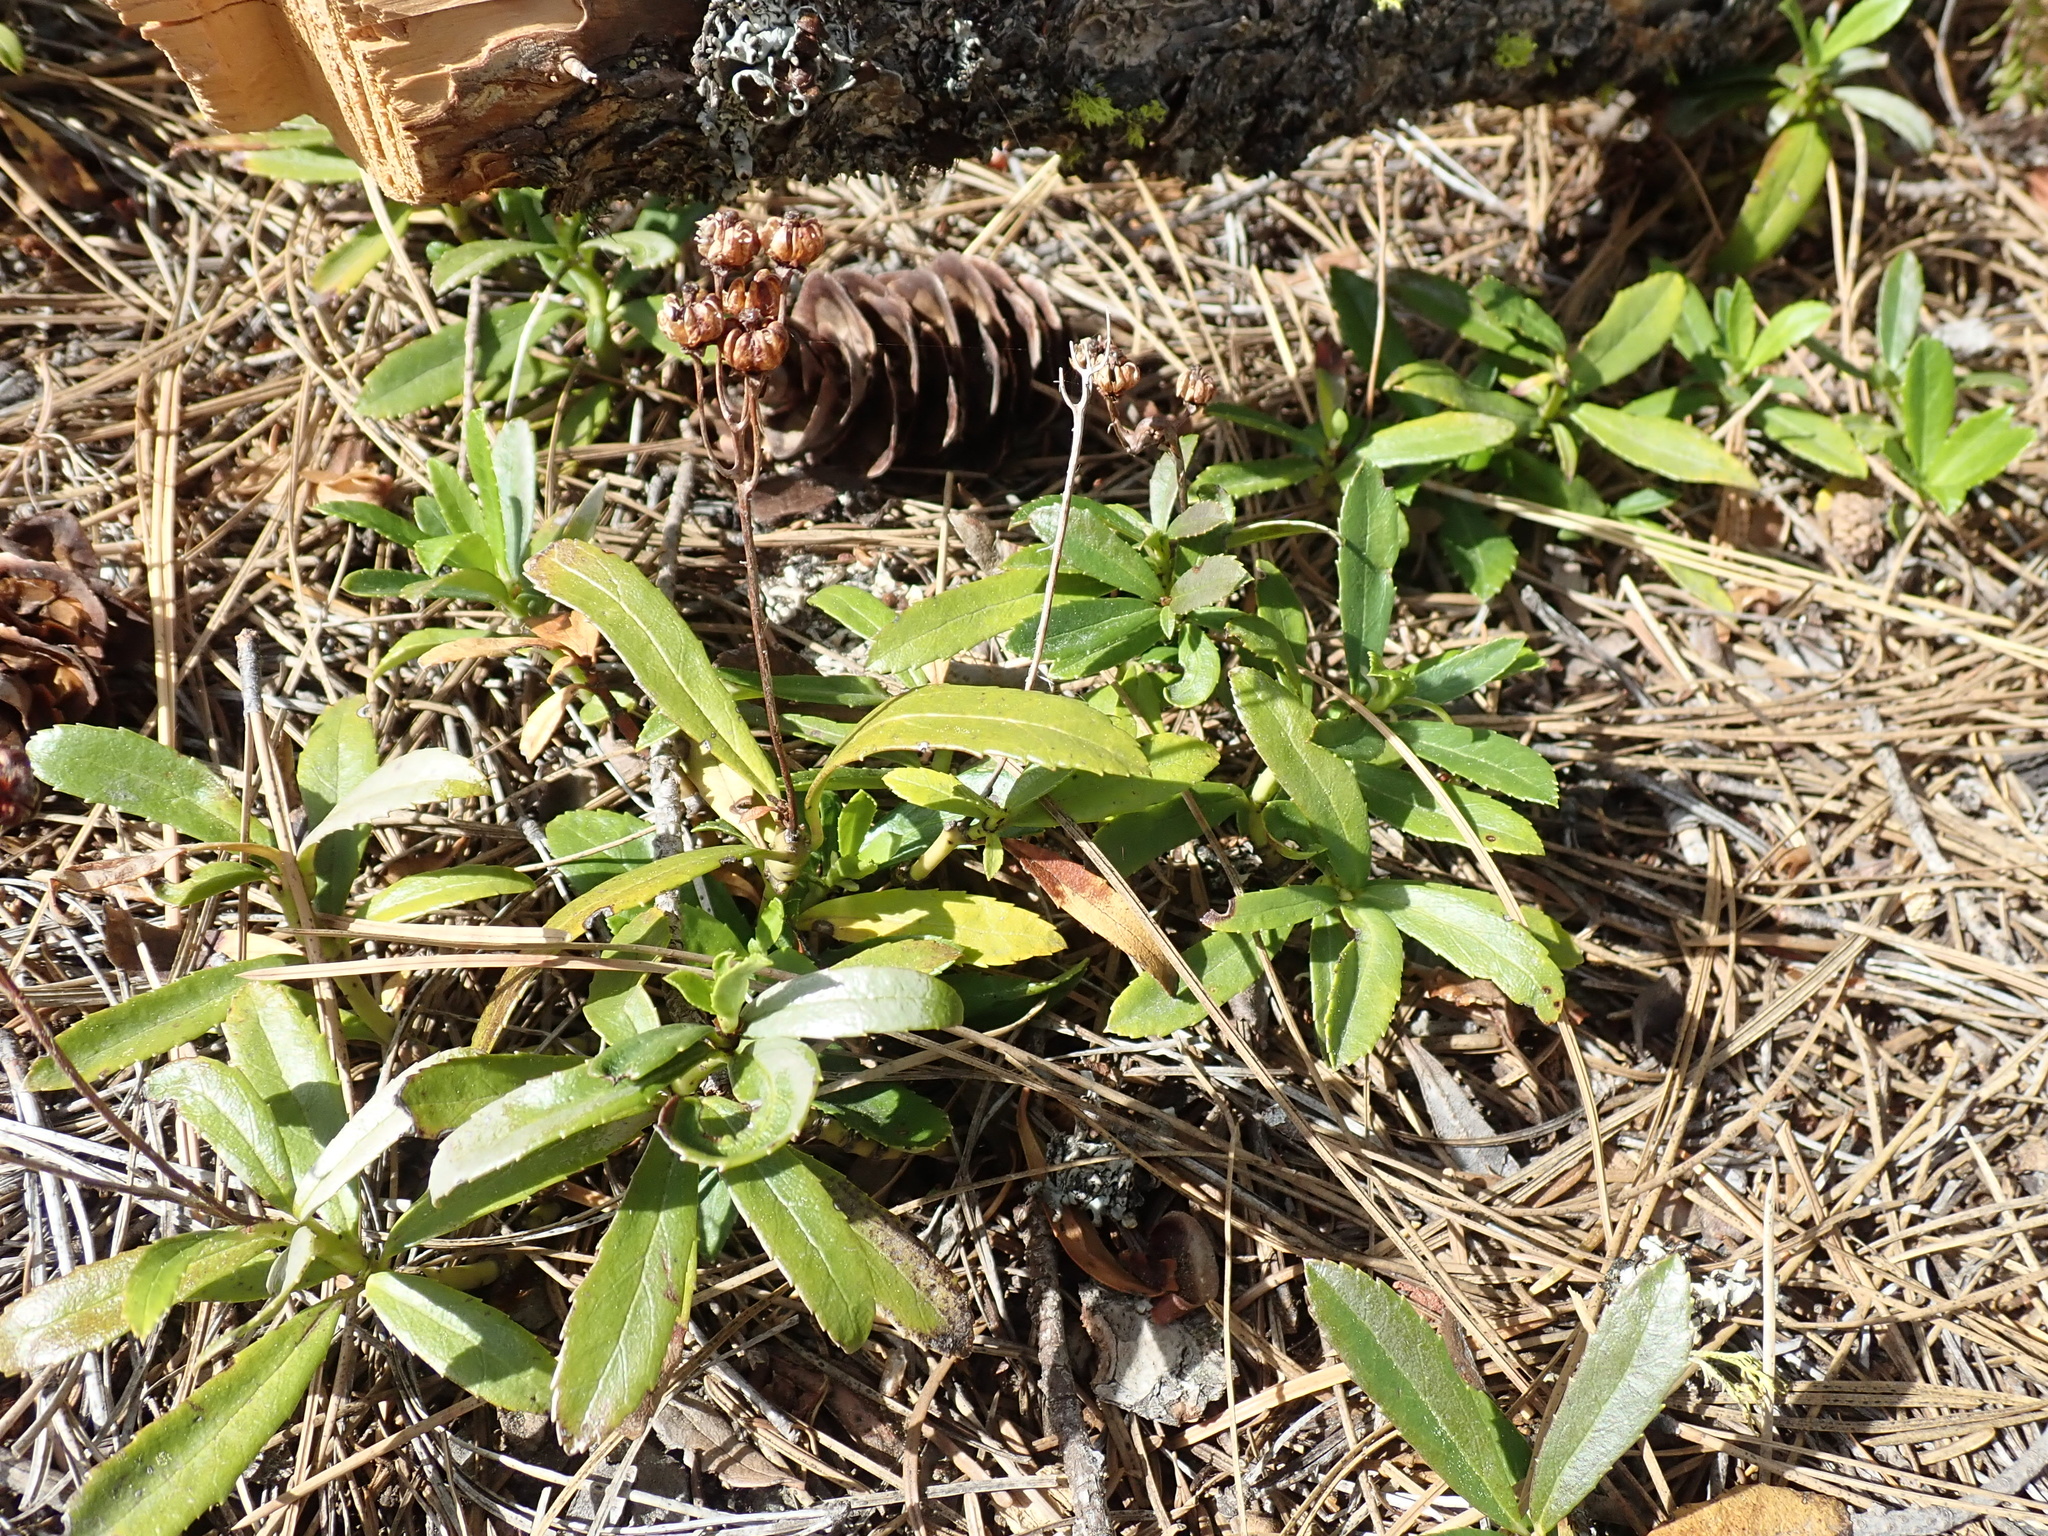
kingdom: Plantae
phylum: Tracheophyta
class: Magnoliopsida
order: Ericales
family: Ericaceae
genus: Chimaphila
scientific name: Chimaphila umbellata
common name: Pipsissewa
